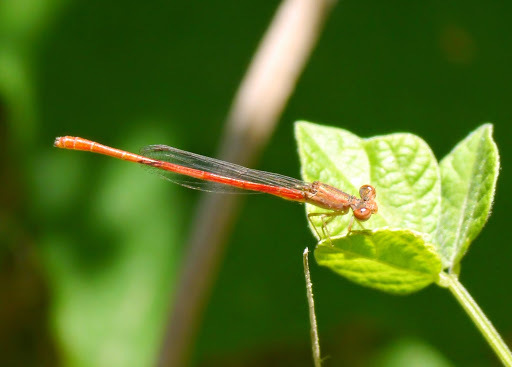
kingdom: Animalia
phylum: Arthropoda
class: Insecta
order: Odonata
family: Coenagrionidae
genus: Telebasis
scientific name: Telebasis salva
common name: Desert firetail
